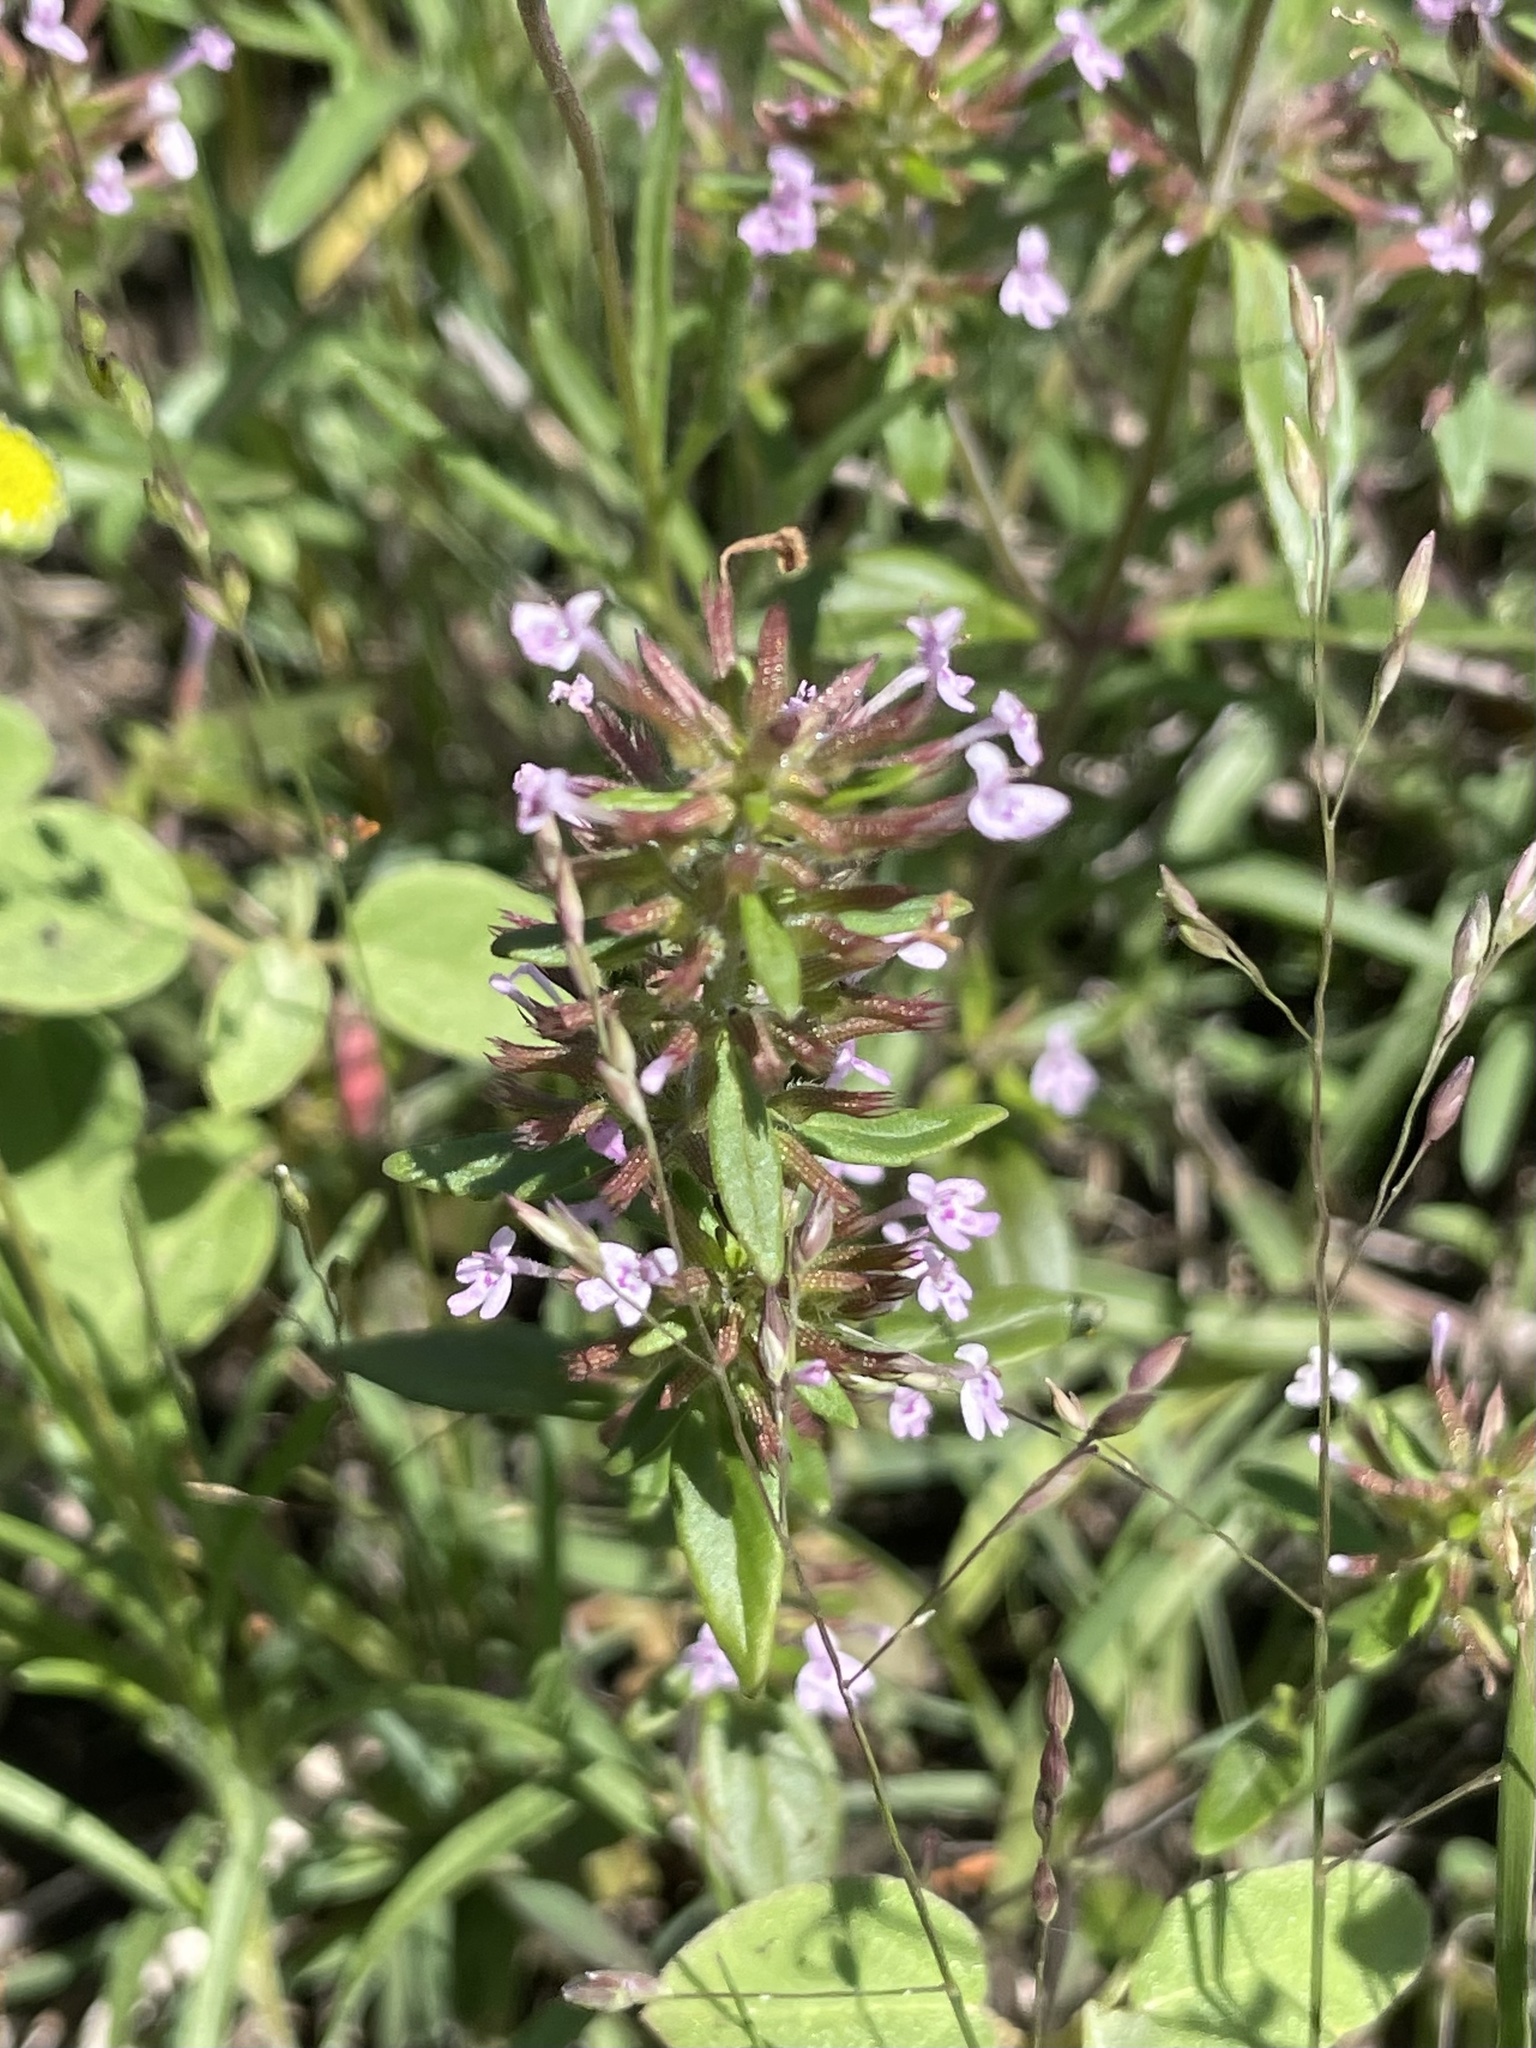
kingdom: Plantae
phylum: Tracheophyta
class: Magnoliopsida
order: Lamiales
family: Lamiaceae
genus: Hedeoma
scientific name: Hedeoma acinoides
